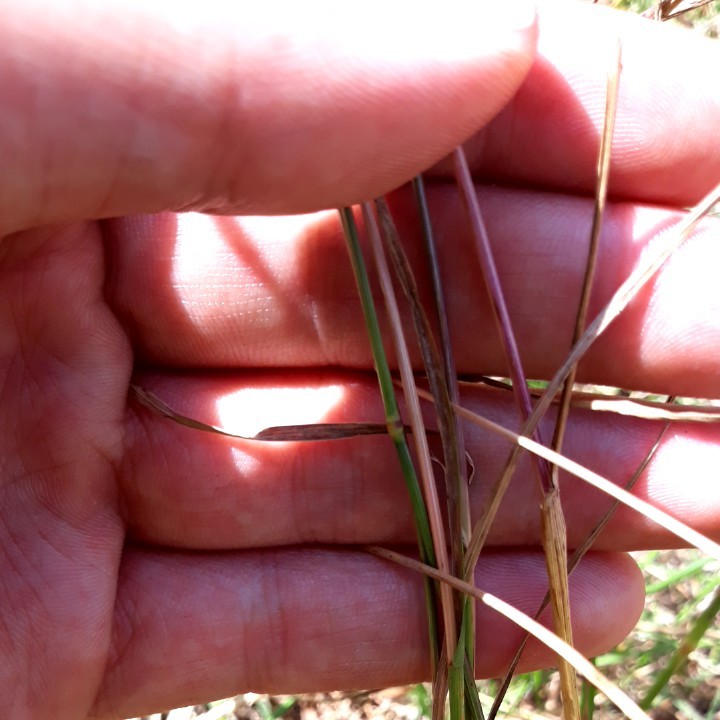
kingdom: Plantae
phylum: Tracheophyta
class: Liliopsida
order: Poales
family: Poaceae
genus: Cynosurus
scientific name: Cynosurus cristatus
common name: Crested dog's-tail
